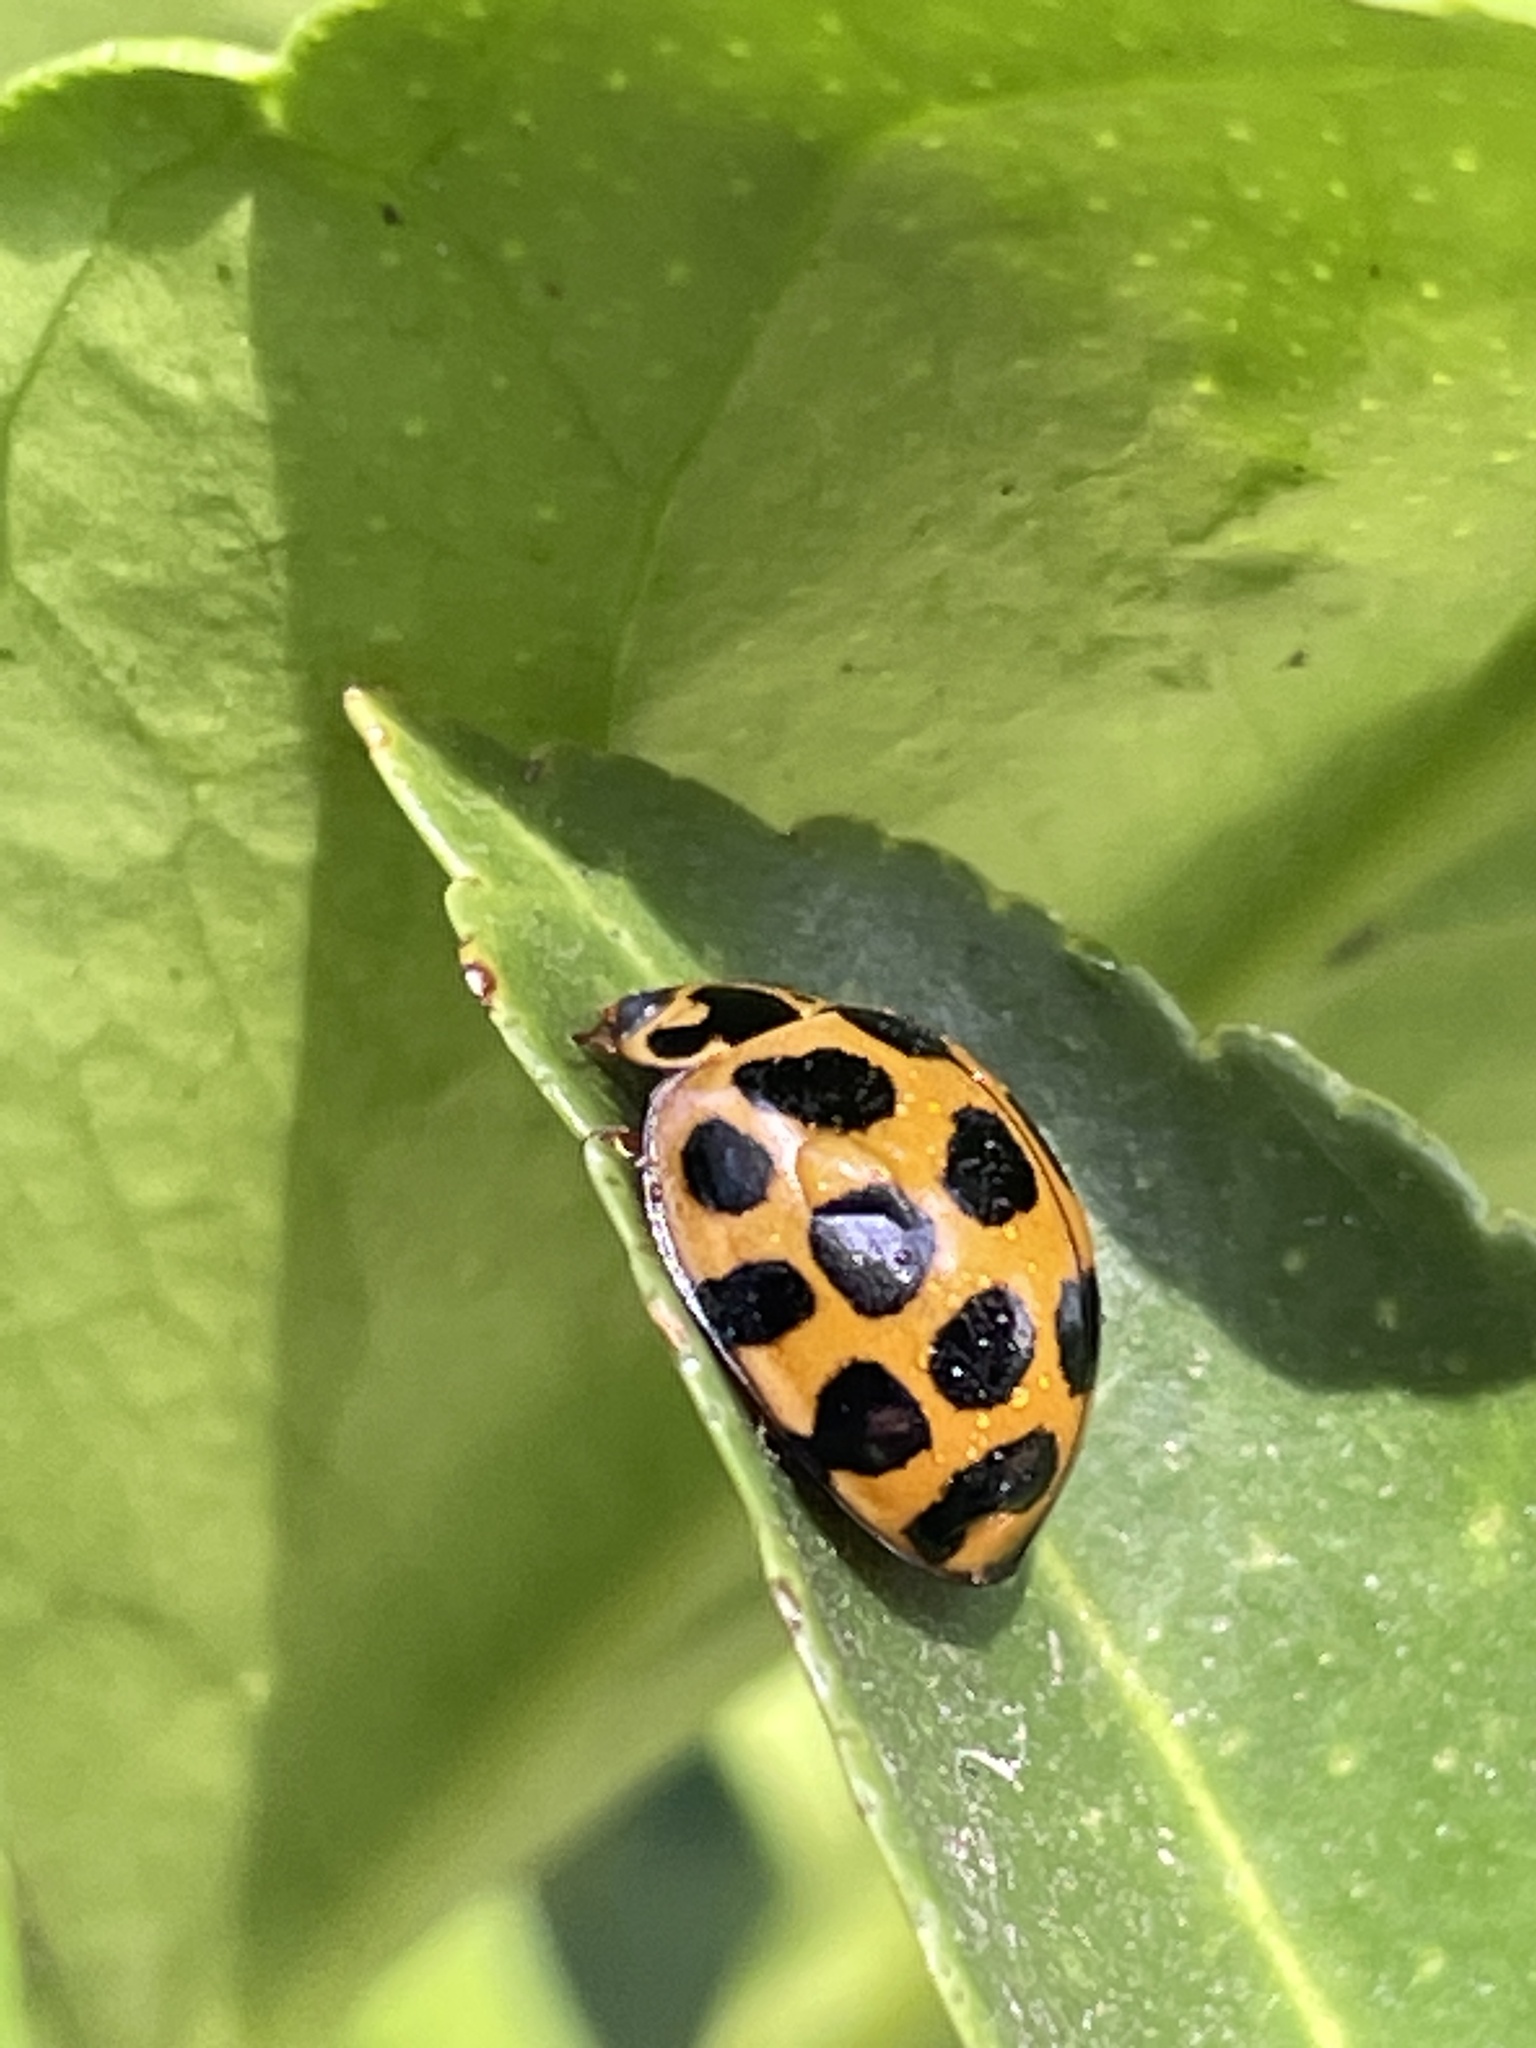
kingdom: Animalia
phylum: Arthropoda
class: Insecta
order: Coleoptera
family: Coccinellidae
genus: Harmonia
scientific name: Harmonia conformis
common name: Common spotted ladybird beetle
